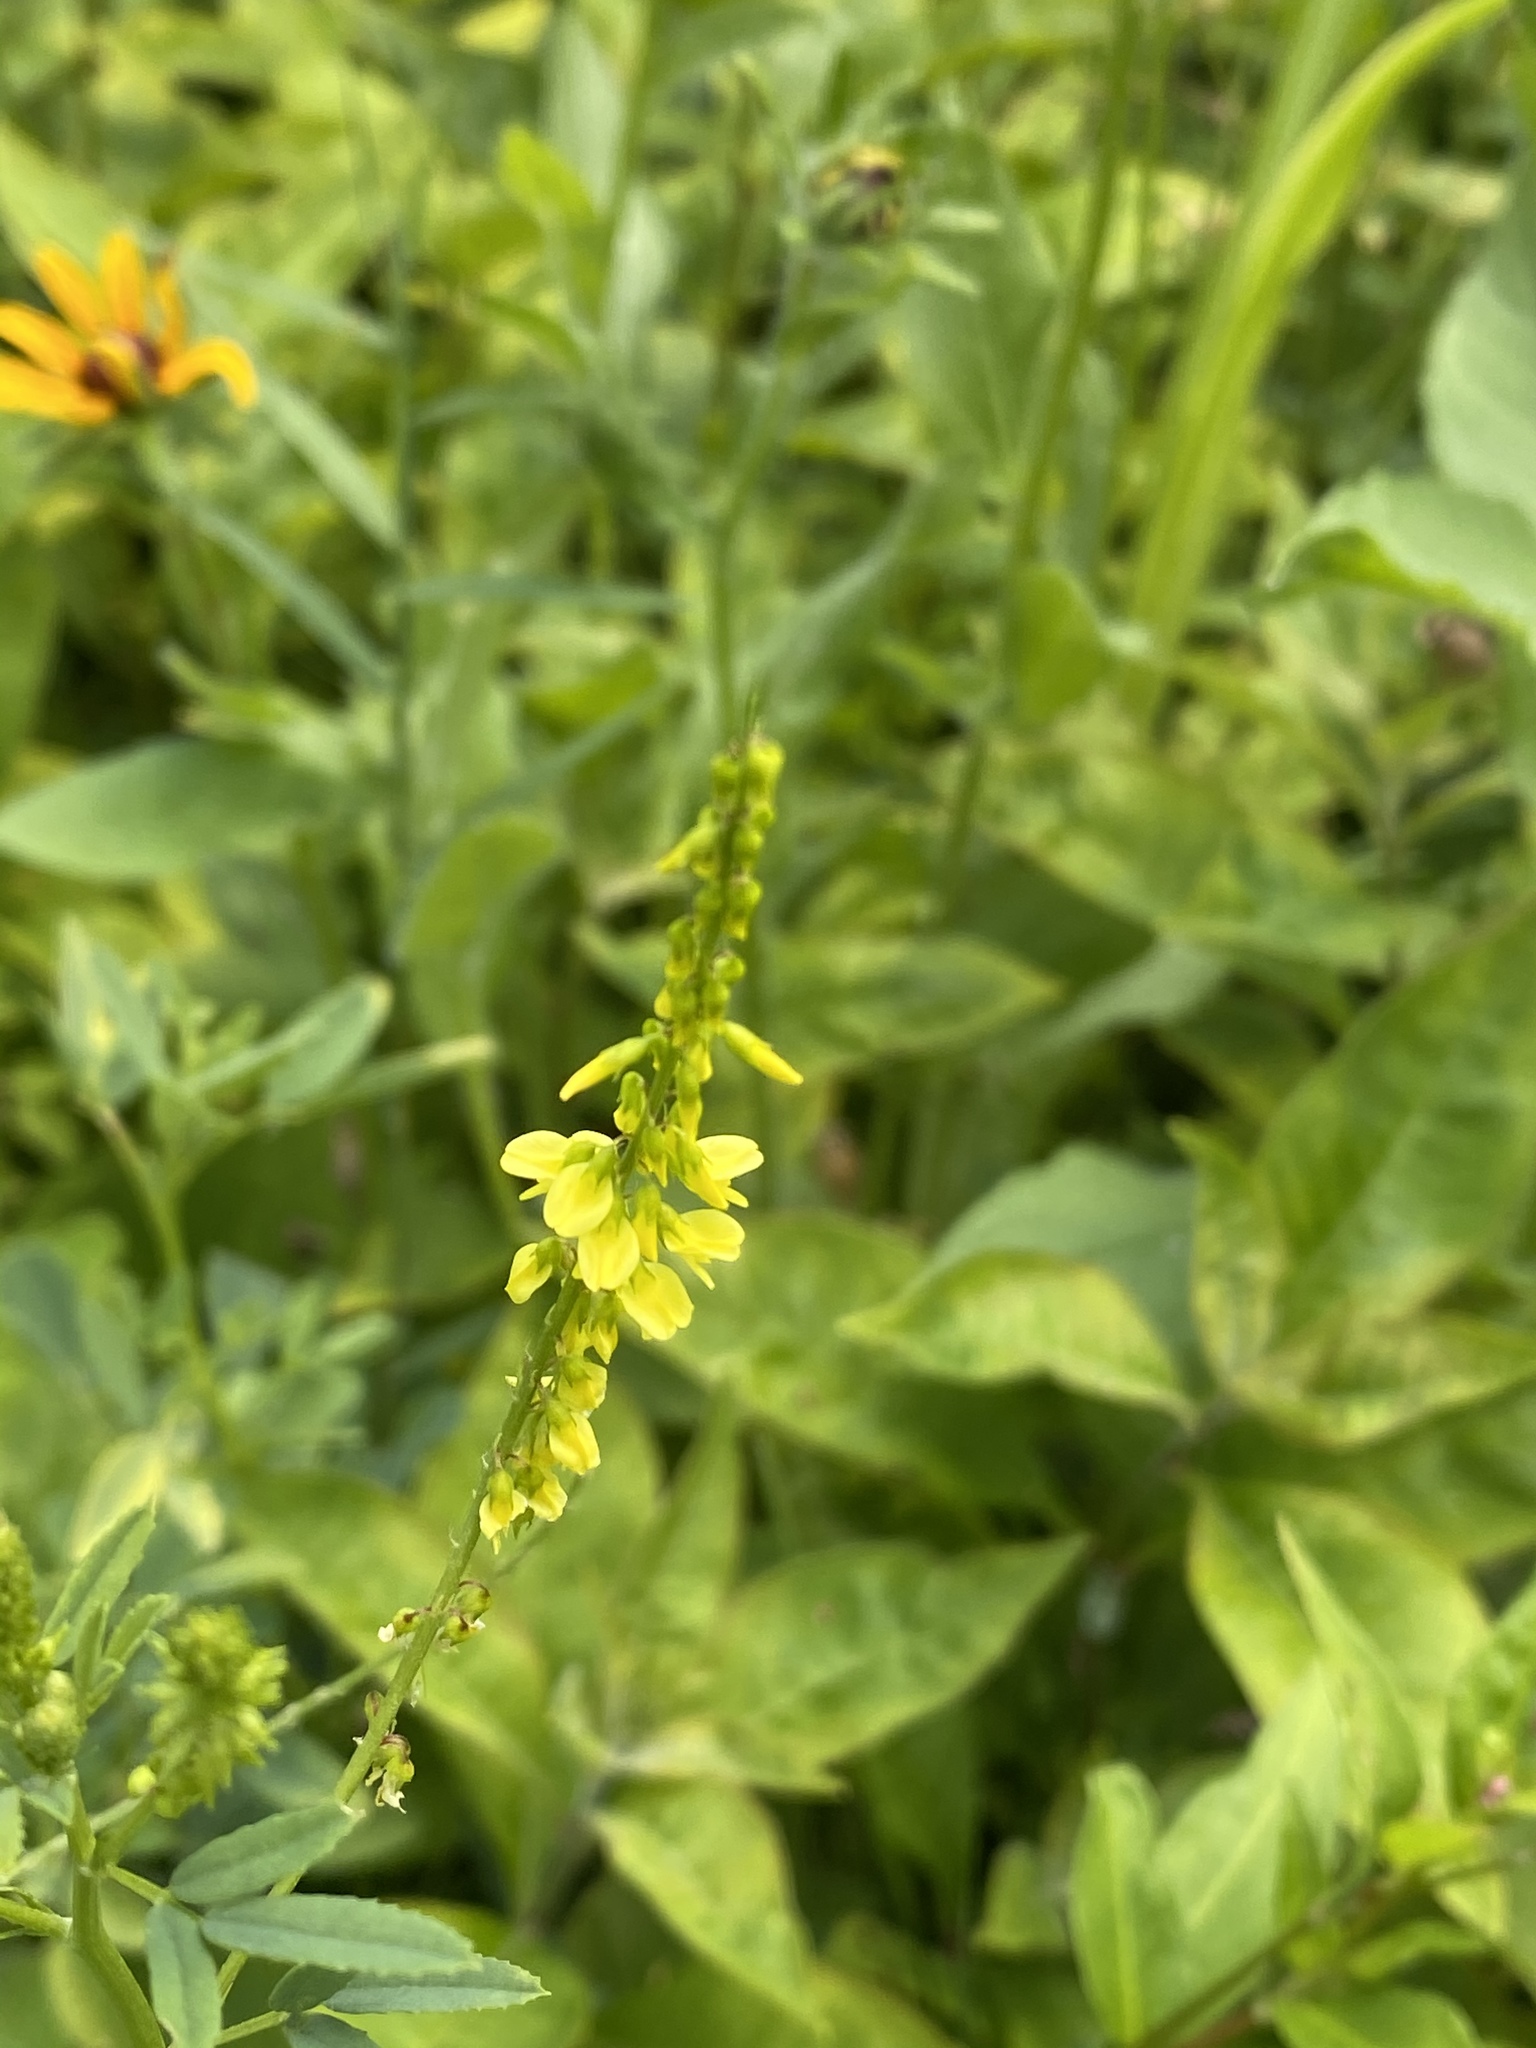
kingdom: Plantae
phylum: Tracheophyta
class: Magnoliopsida
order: Fabales
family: Fabaceae
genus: Melilotus
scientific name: Melilotus officinalis
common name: Sweetclover
